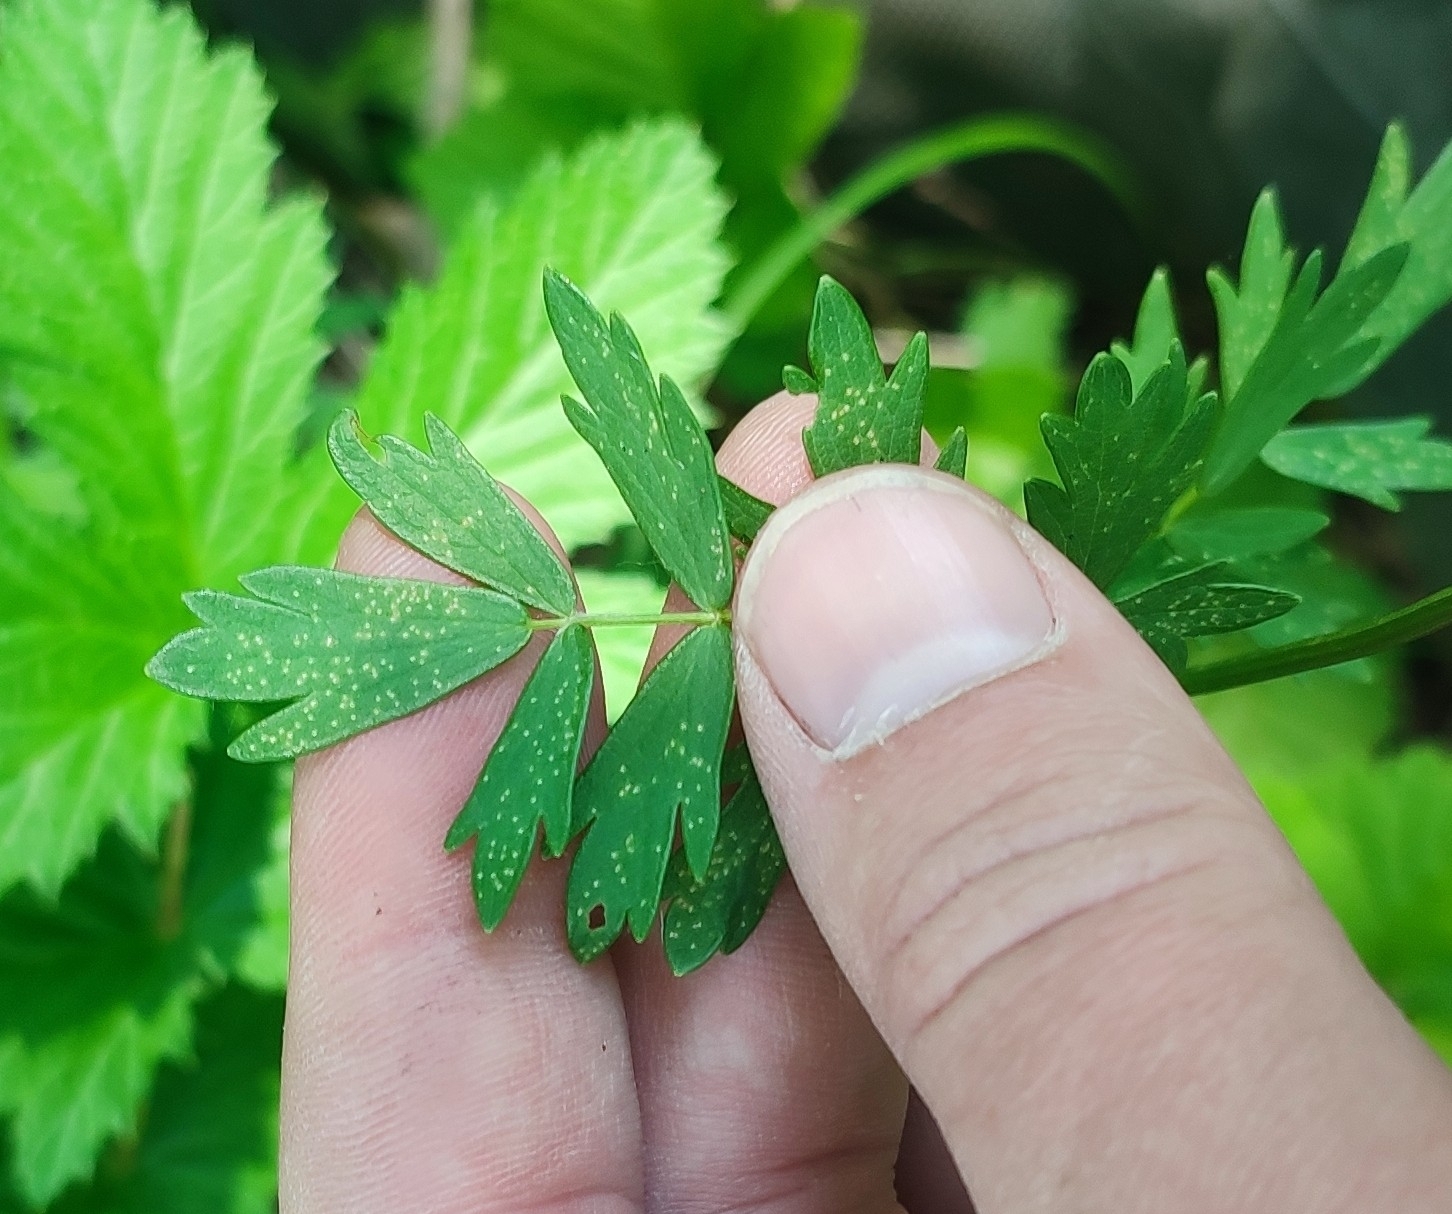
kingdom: Plantae
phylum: Tracheophyta
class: Magnoliopsida
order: Ranunculales
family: Ranunculaceae
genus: Thalictrum
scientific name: Thalictrum simplex
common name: Small meadow-rue
